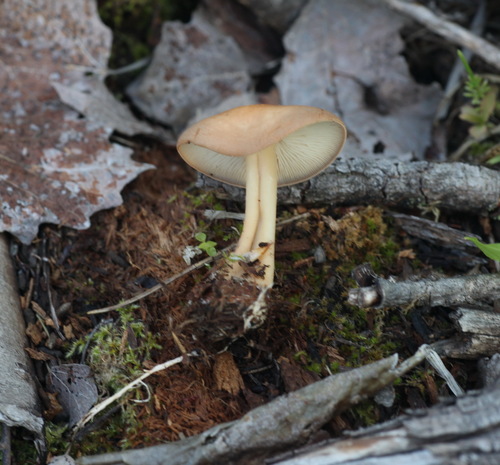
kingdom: Fungi
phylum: Basidiomycota
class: Agaricomycetes
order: Agaricales
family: Omphalotaceae
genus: Gymnopus
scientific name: Gymnopus aquosus
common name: Watery toughshank
